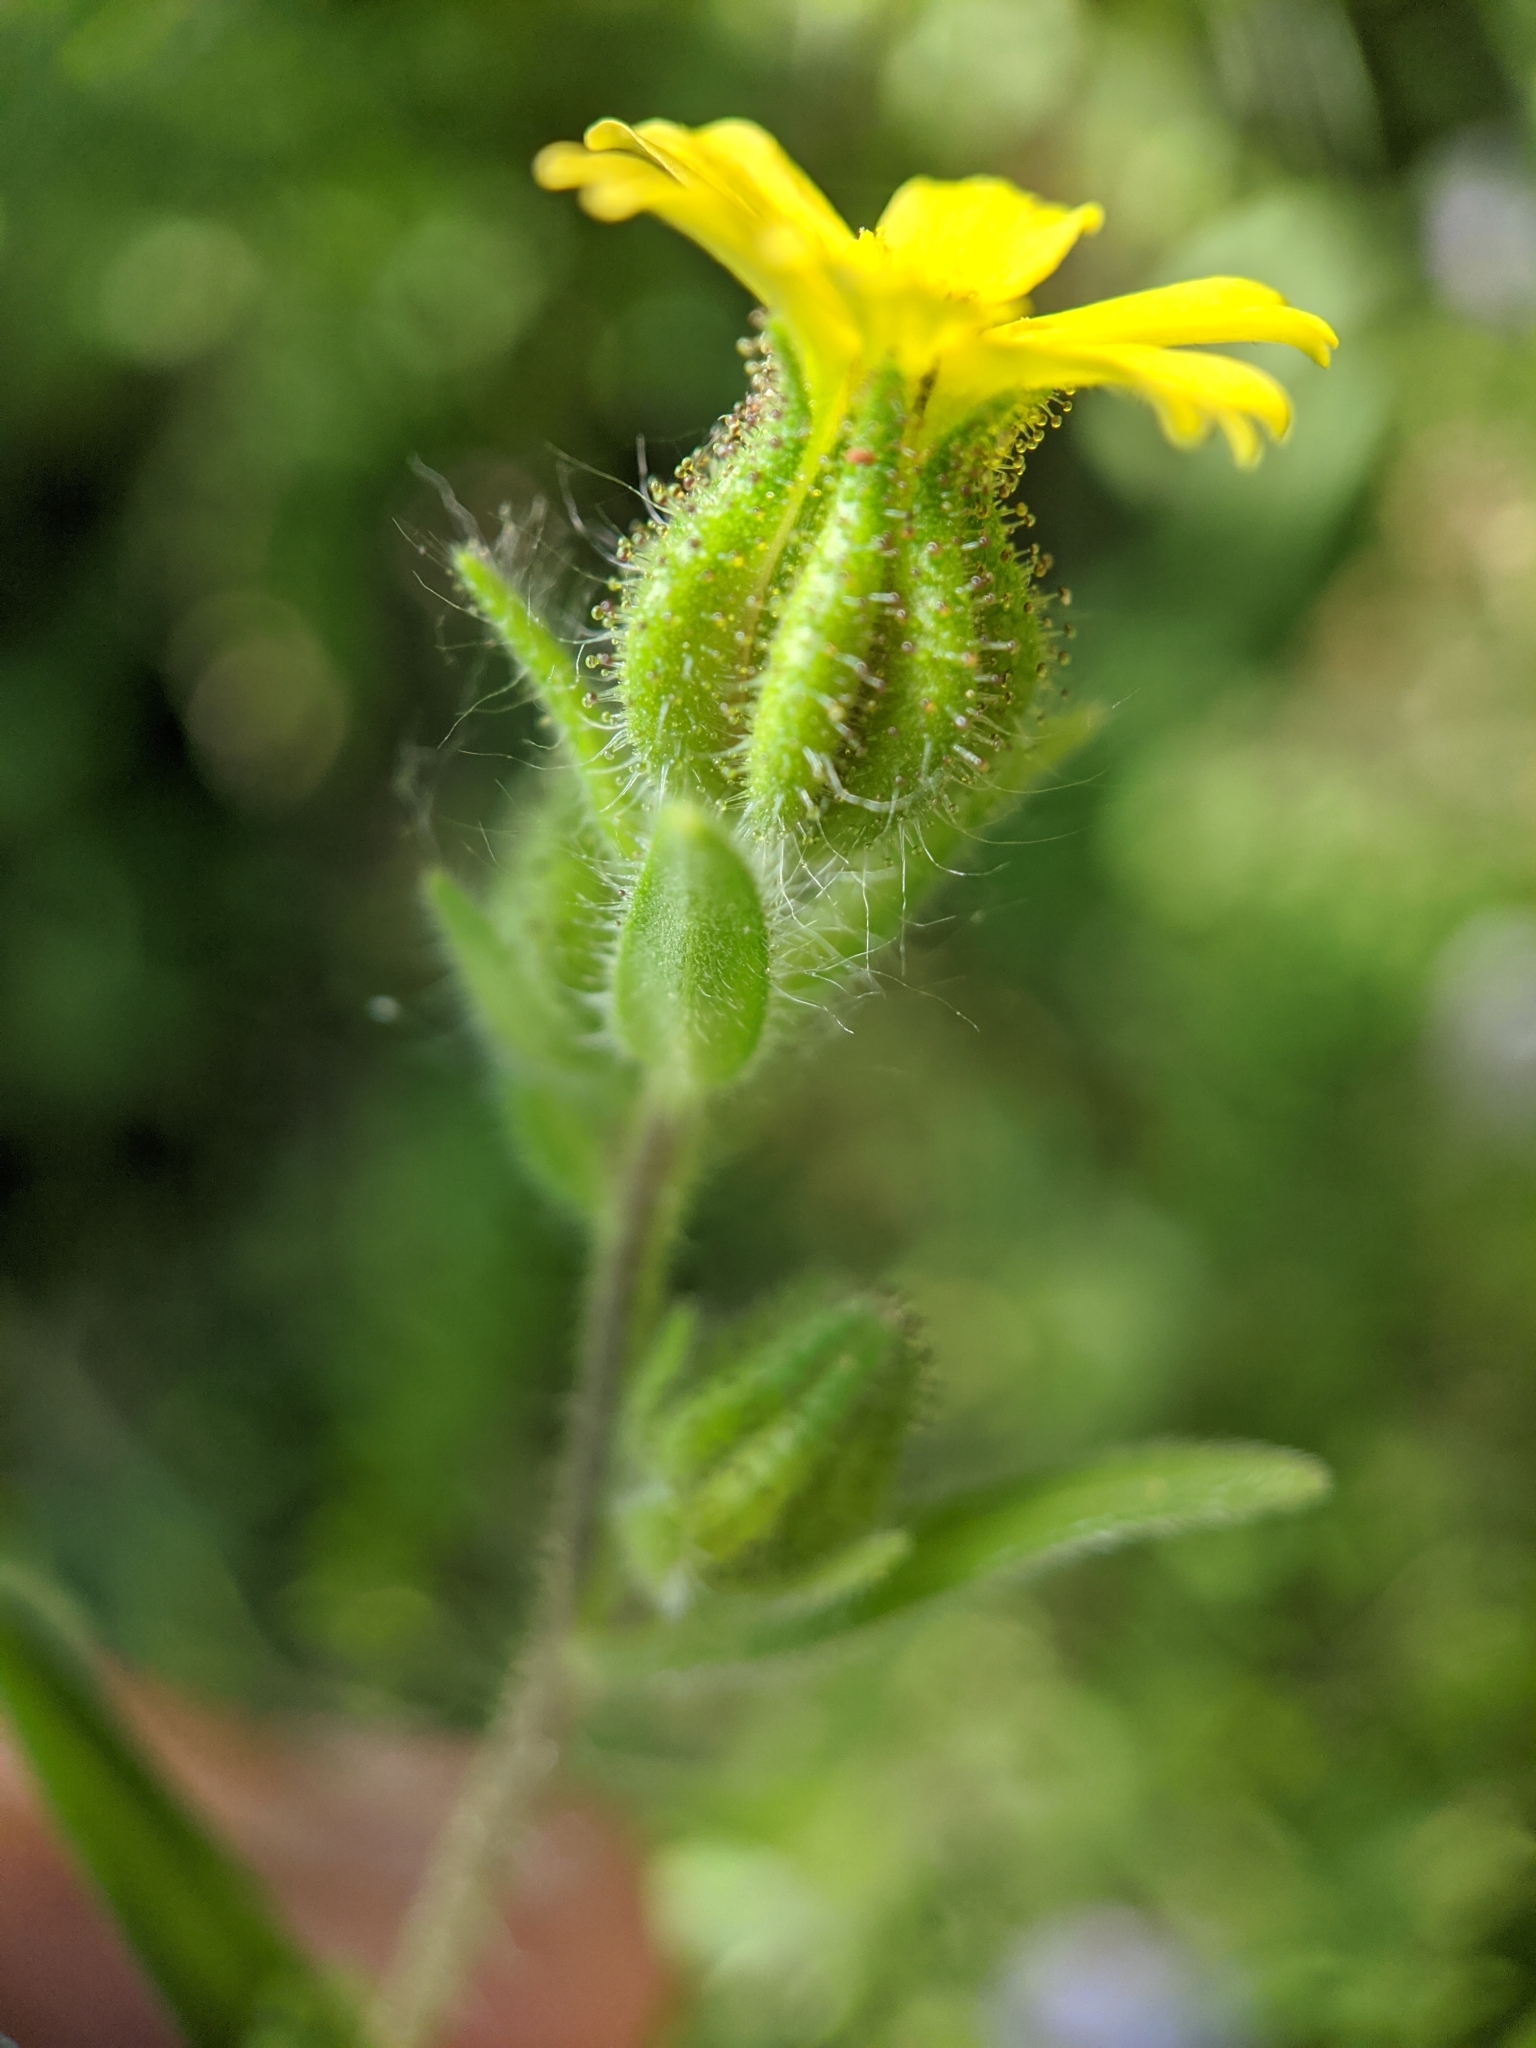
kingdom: Plantae
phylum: Tracheophyta
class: Magnoliopsida
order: Asterales
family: Asteraceae
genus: Madia
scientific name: Madia gracilis
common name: Grassy tarweed
